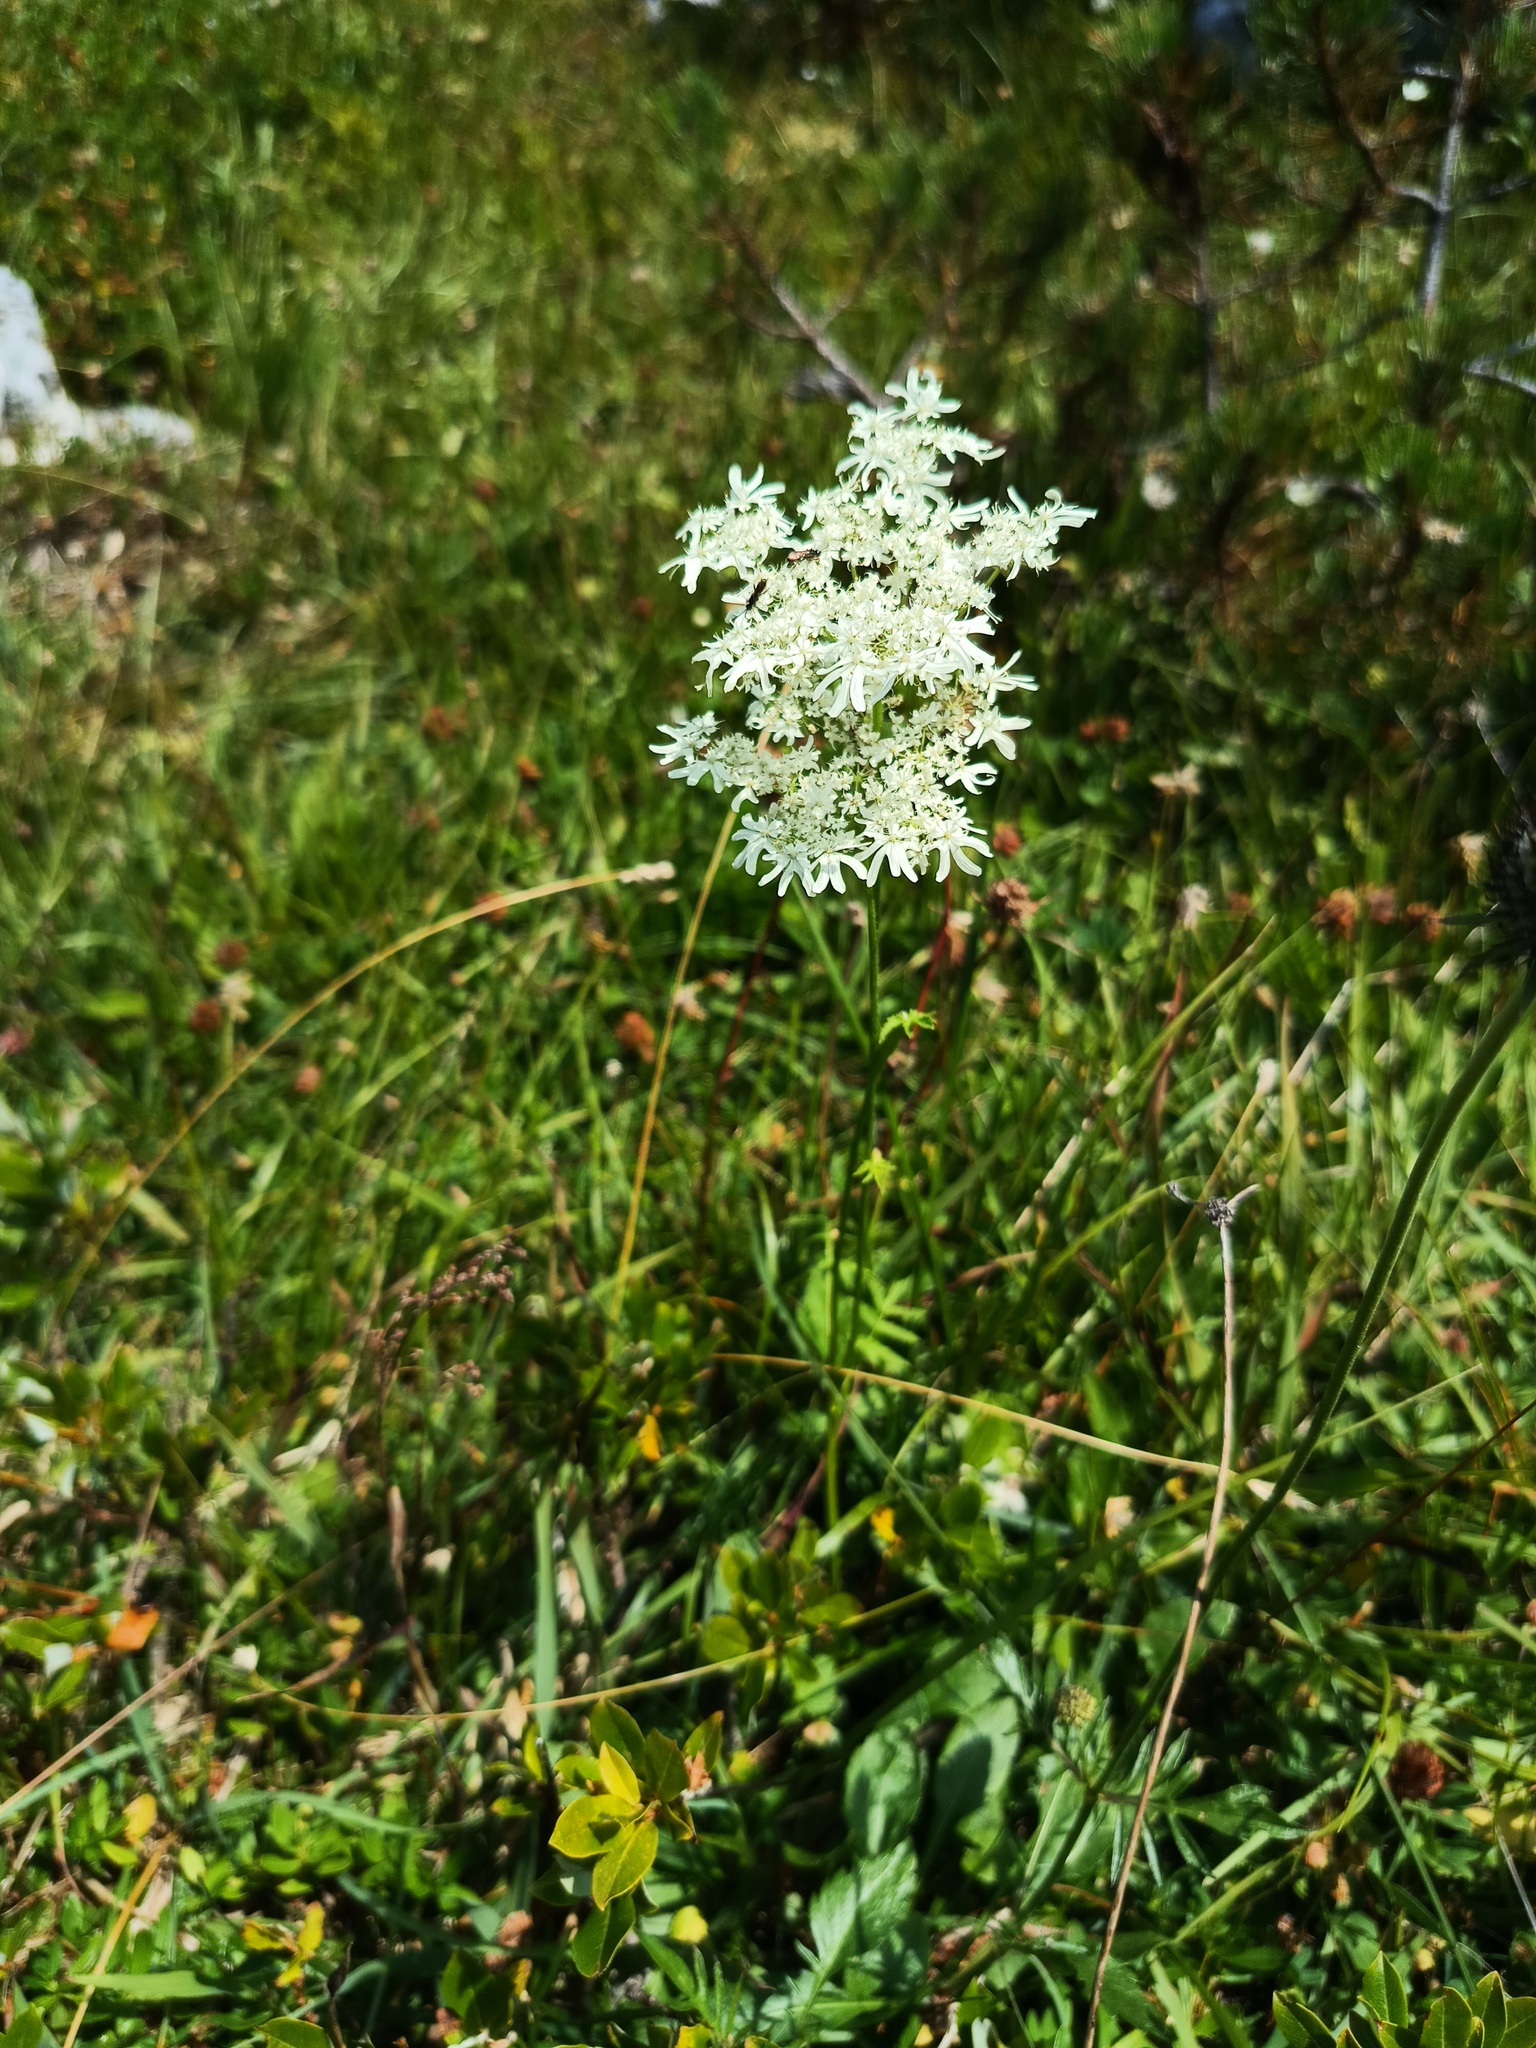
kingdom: Plantae
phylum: Tracheophyta
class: Magnoliopsida
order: Apiales
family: Apiaceae
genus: Heracleum
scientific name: Heracleum austriacum
